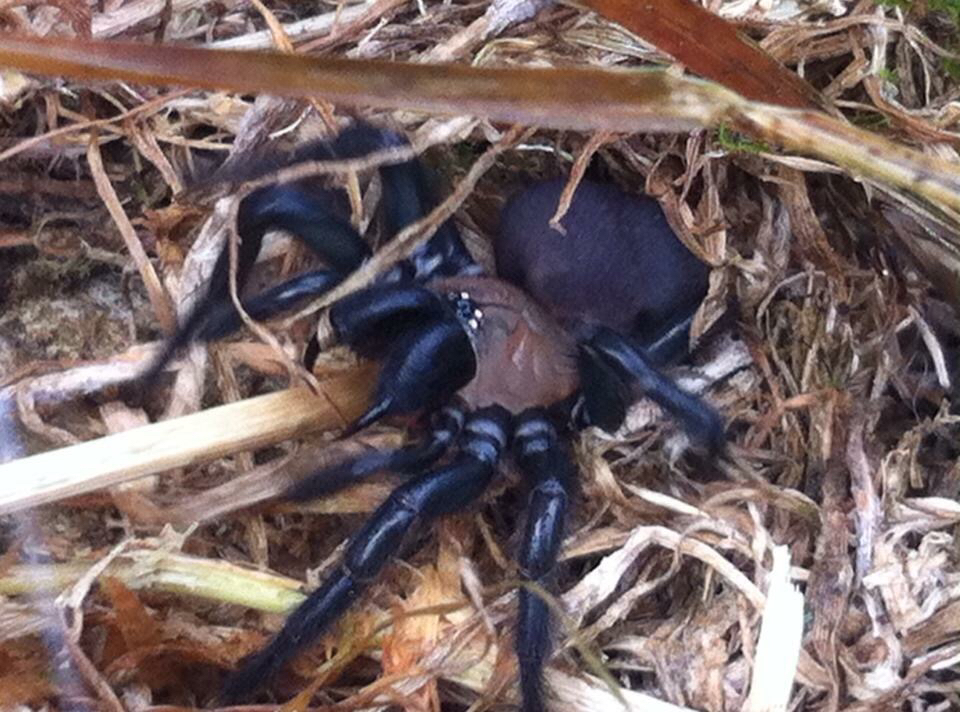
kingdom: Animalia
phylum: Arthropoda
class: Arachnida
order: Araneae
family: Porrhothelidae
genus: Porrhothele
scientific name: Porrhothele antipodiana
